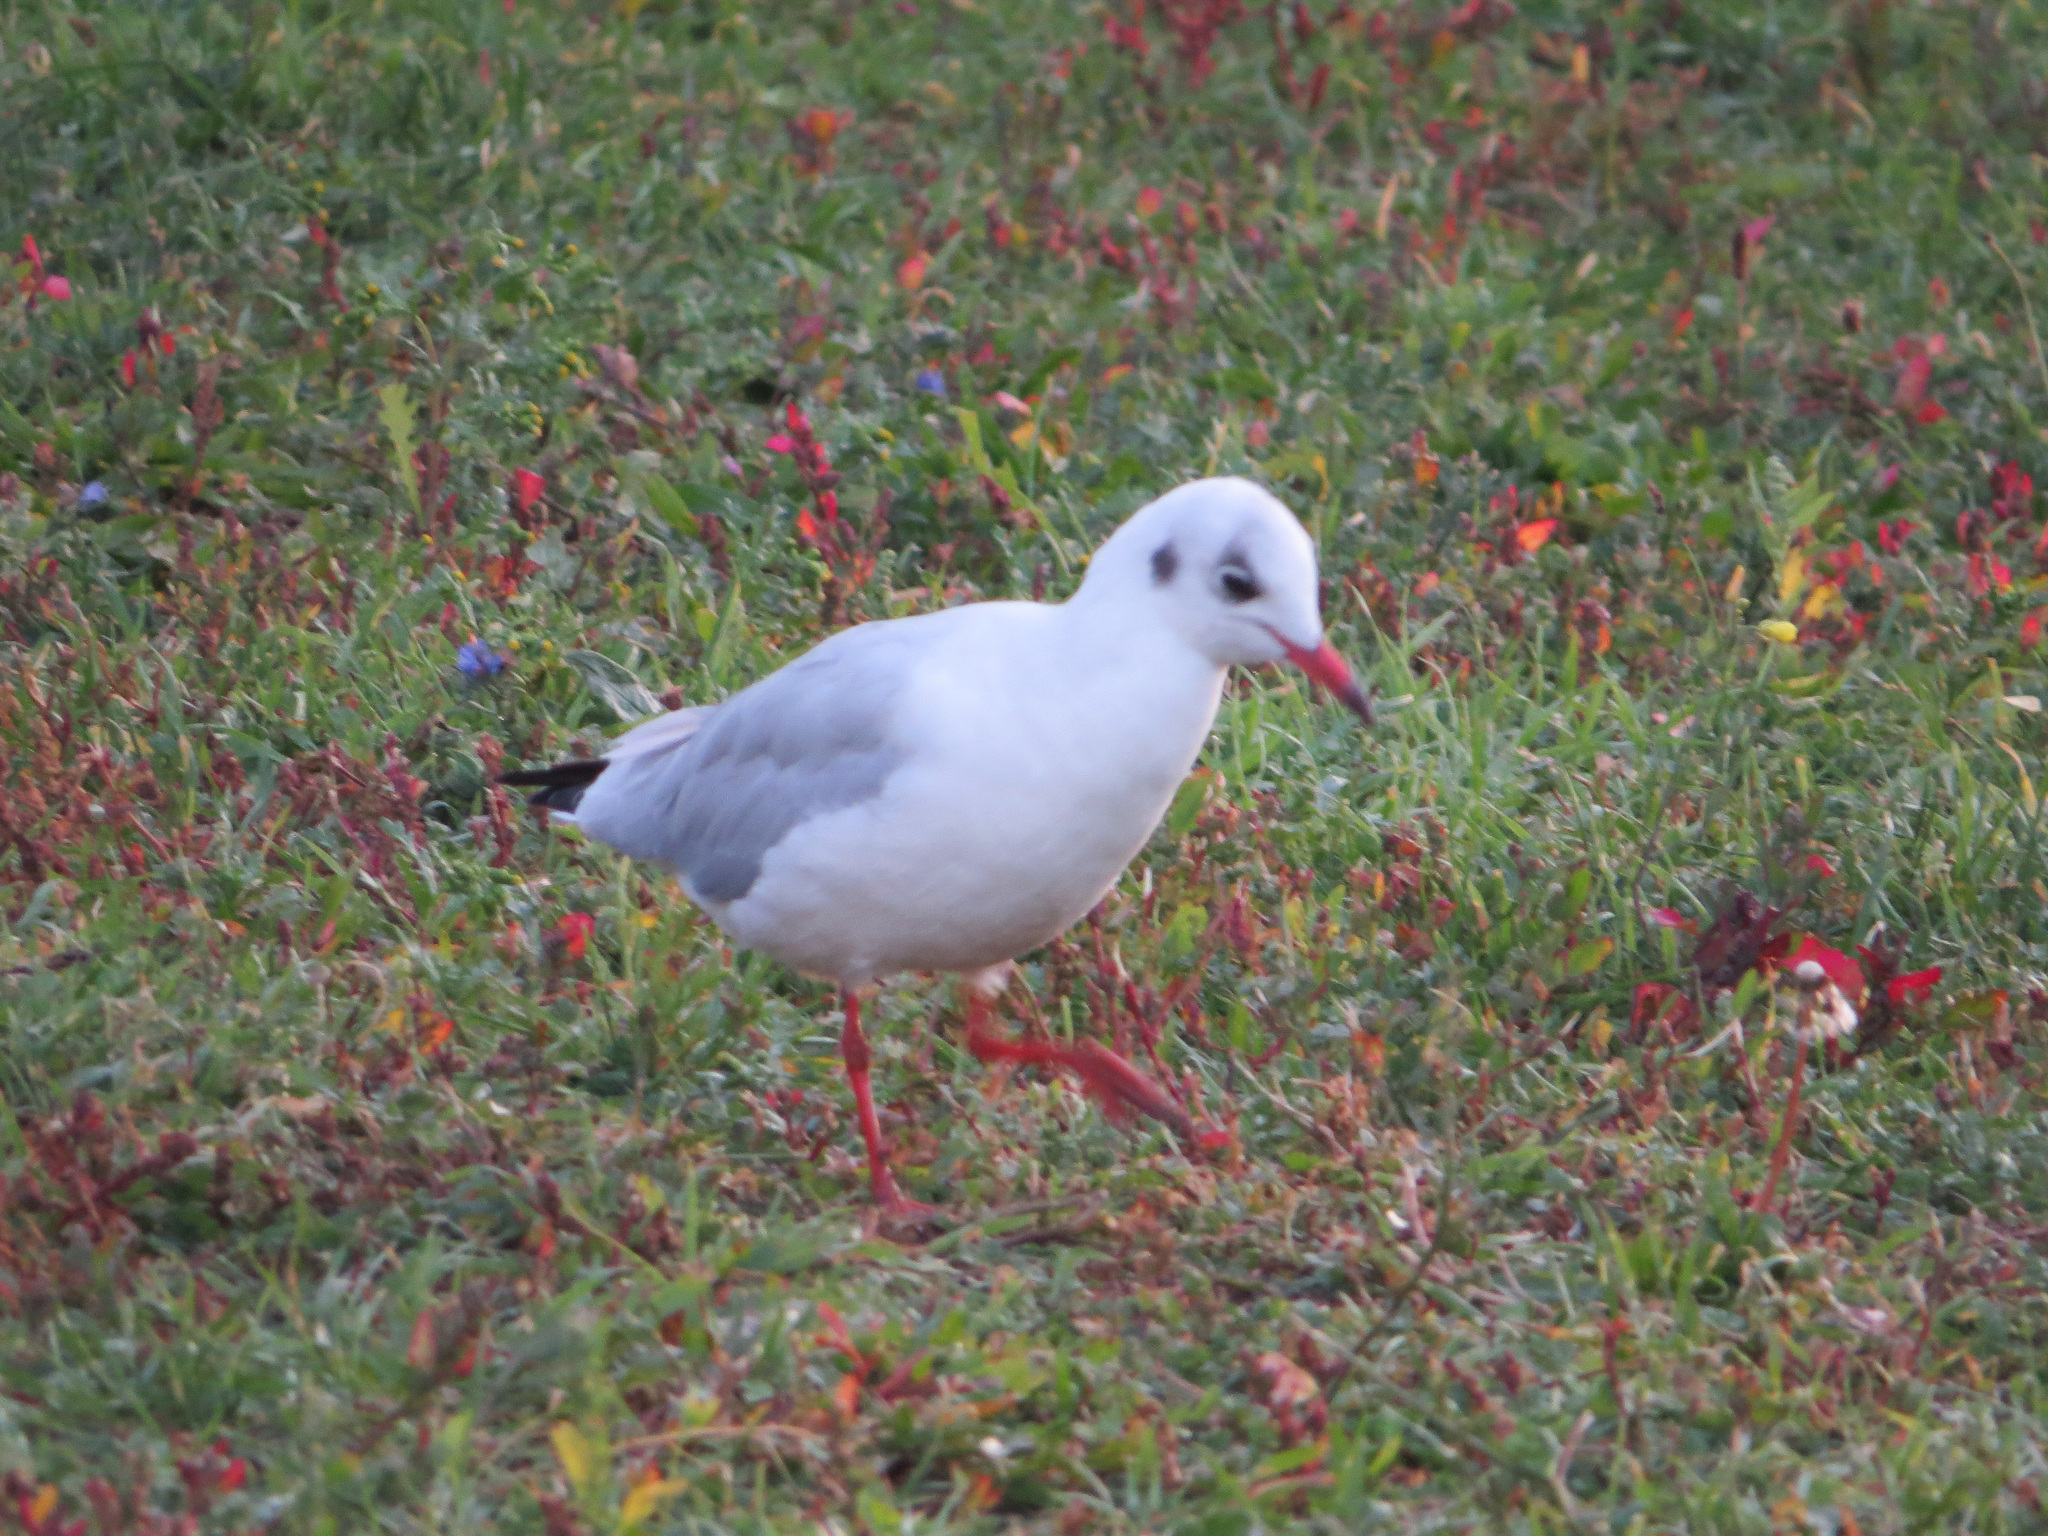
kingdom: Animalia
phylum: Chordata
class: Aves
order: Charadriiformes
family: Laridae
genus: Chroicocephalus
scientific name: Chroicocephalus ridibundus
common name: Black-headed gull
